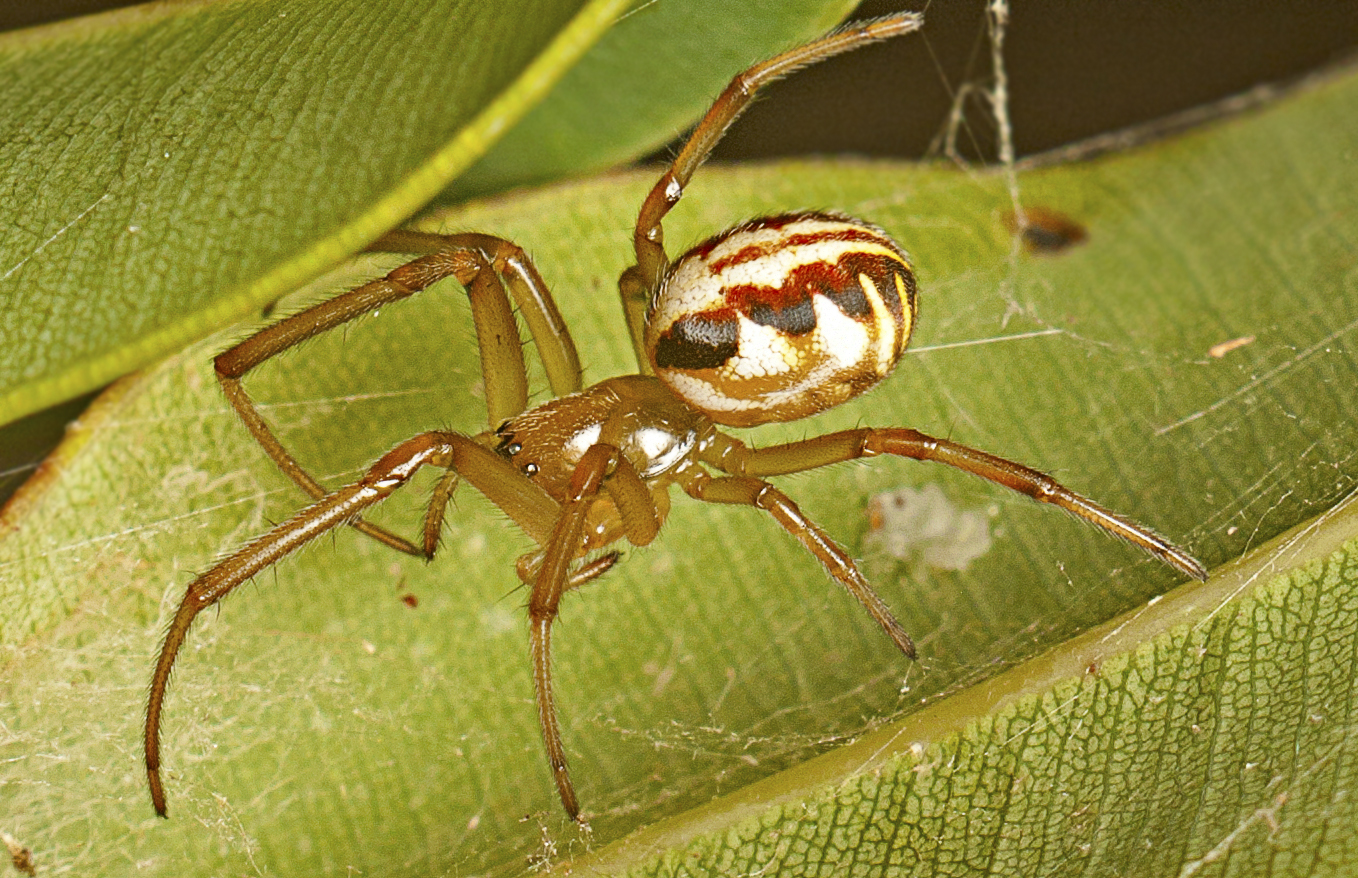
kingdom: Animalia
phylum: Arthropoda
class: Arachnida
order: Araneae
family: Araneidae
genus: Phonognatha
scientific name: Phonognatha graeffei
